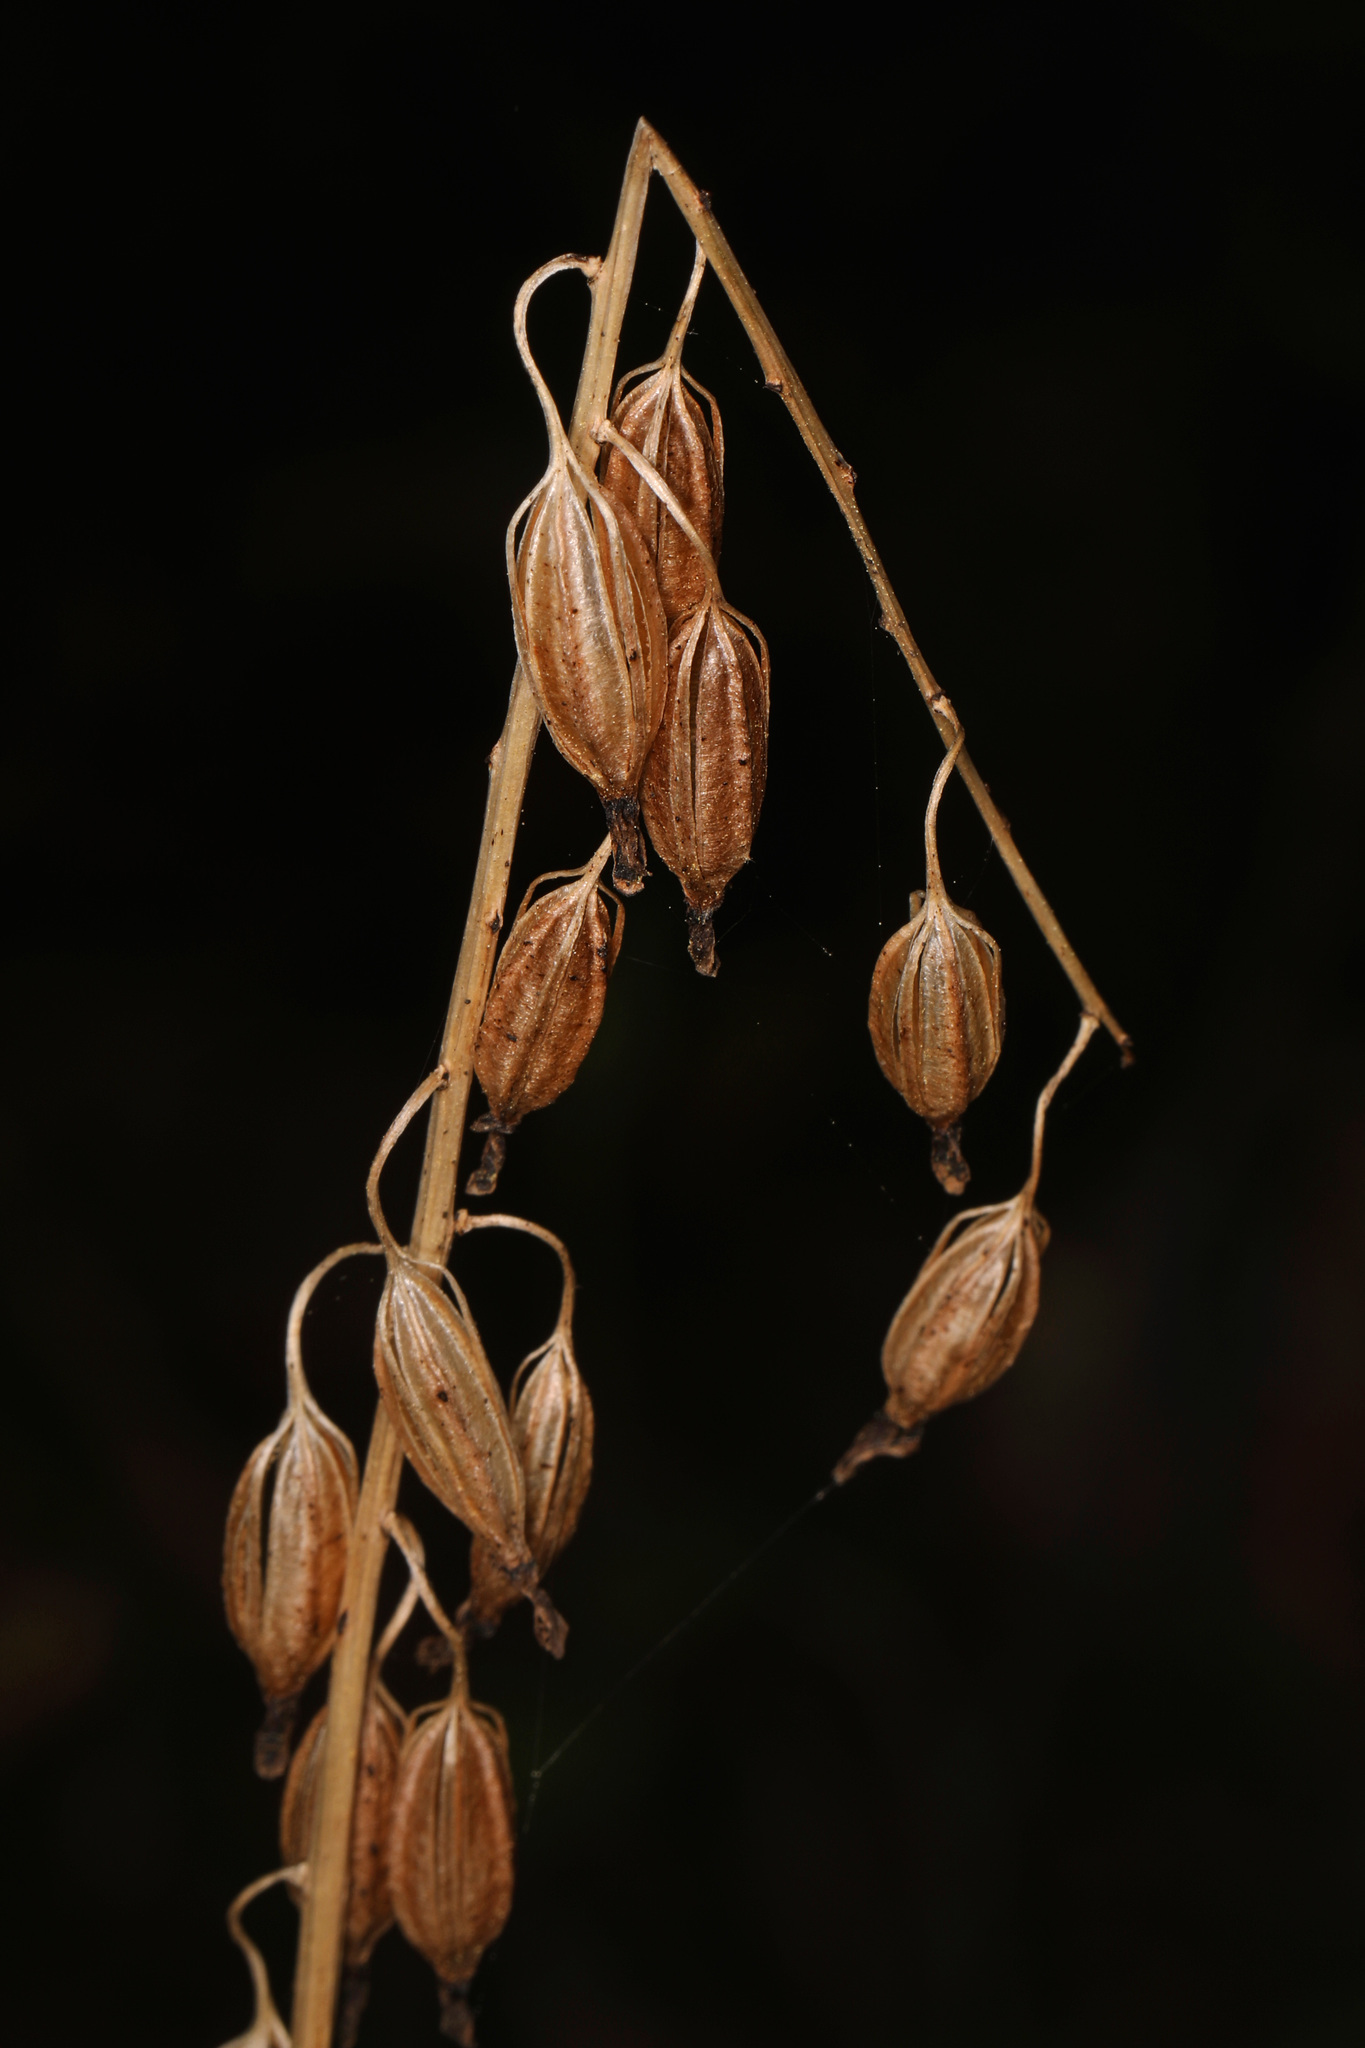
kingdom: Plantae
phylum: Tracheophyta
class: Liliopsida
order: Asparagales
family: Orchidaceae
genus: Tipularia
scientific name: Tipularia discolor
